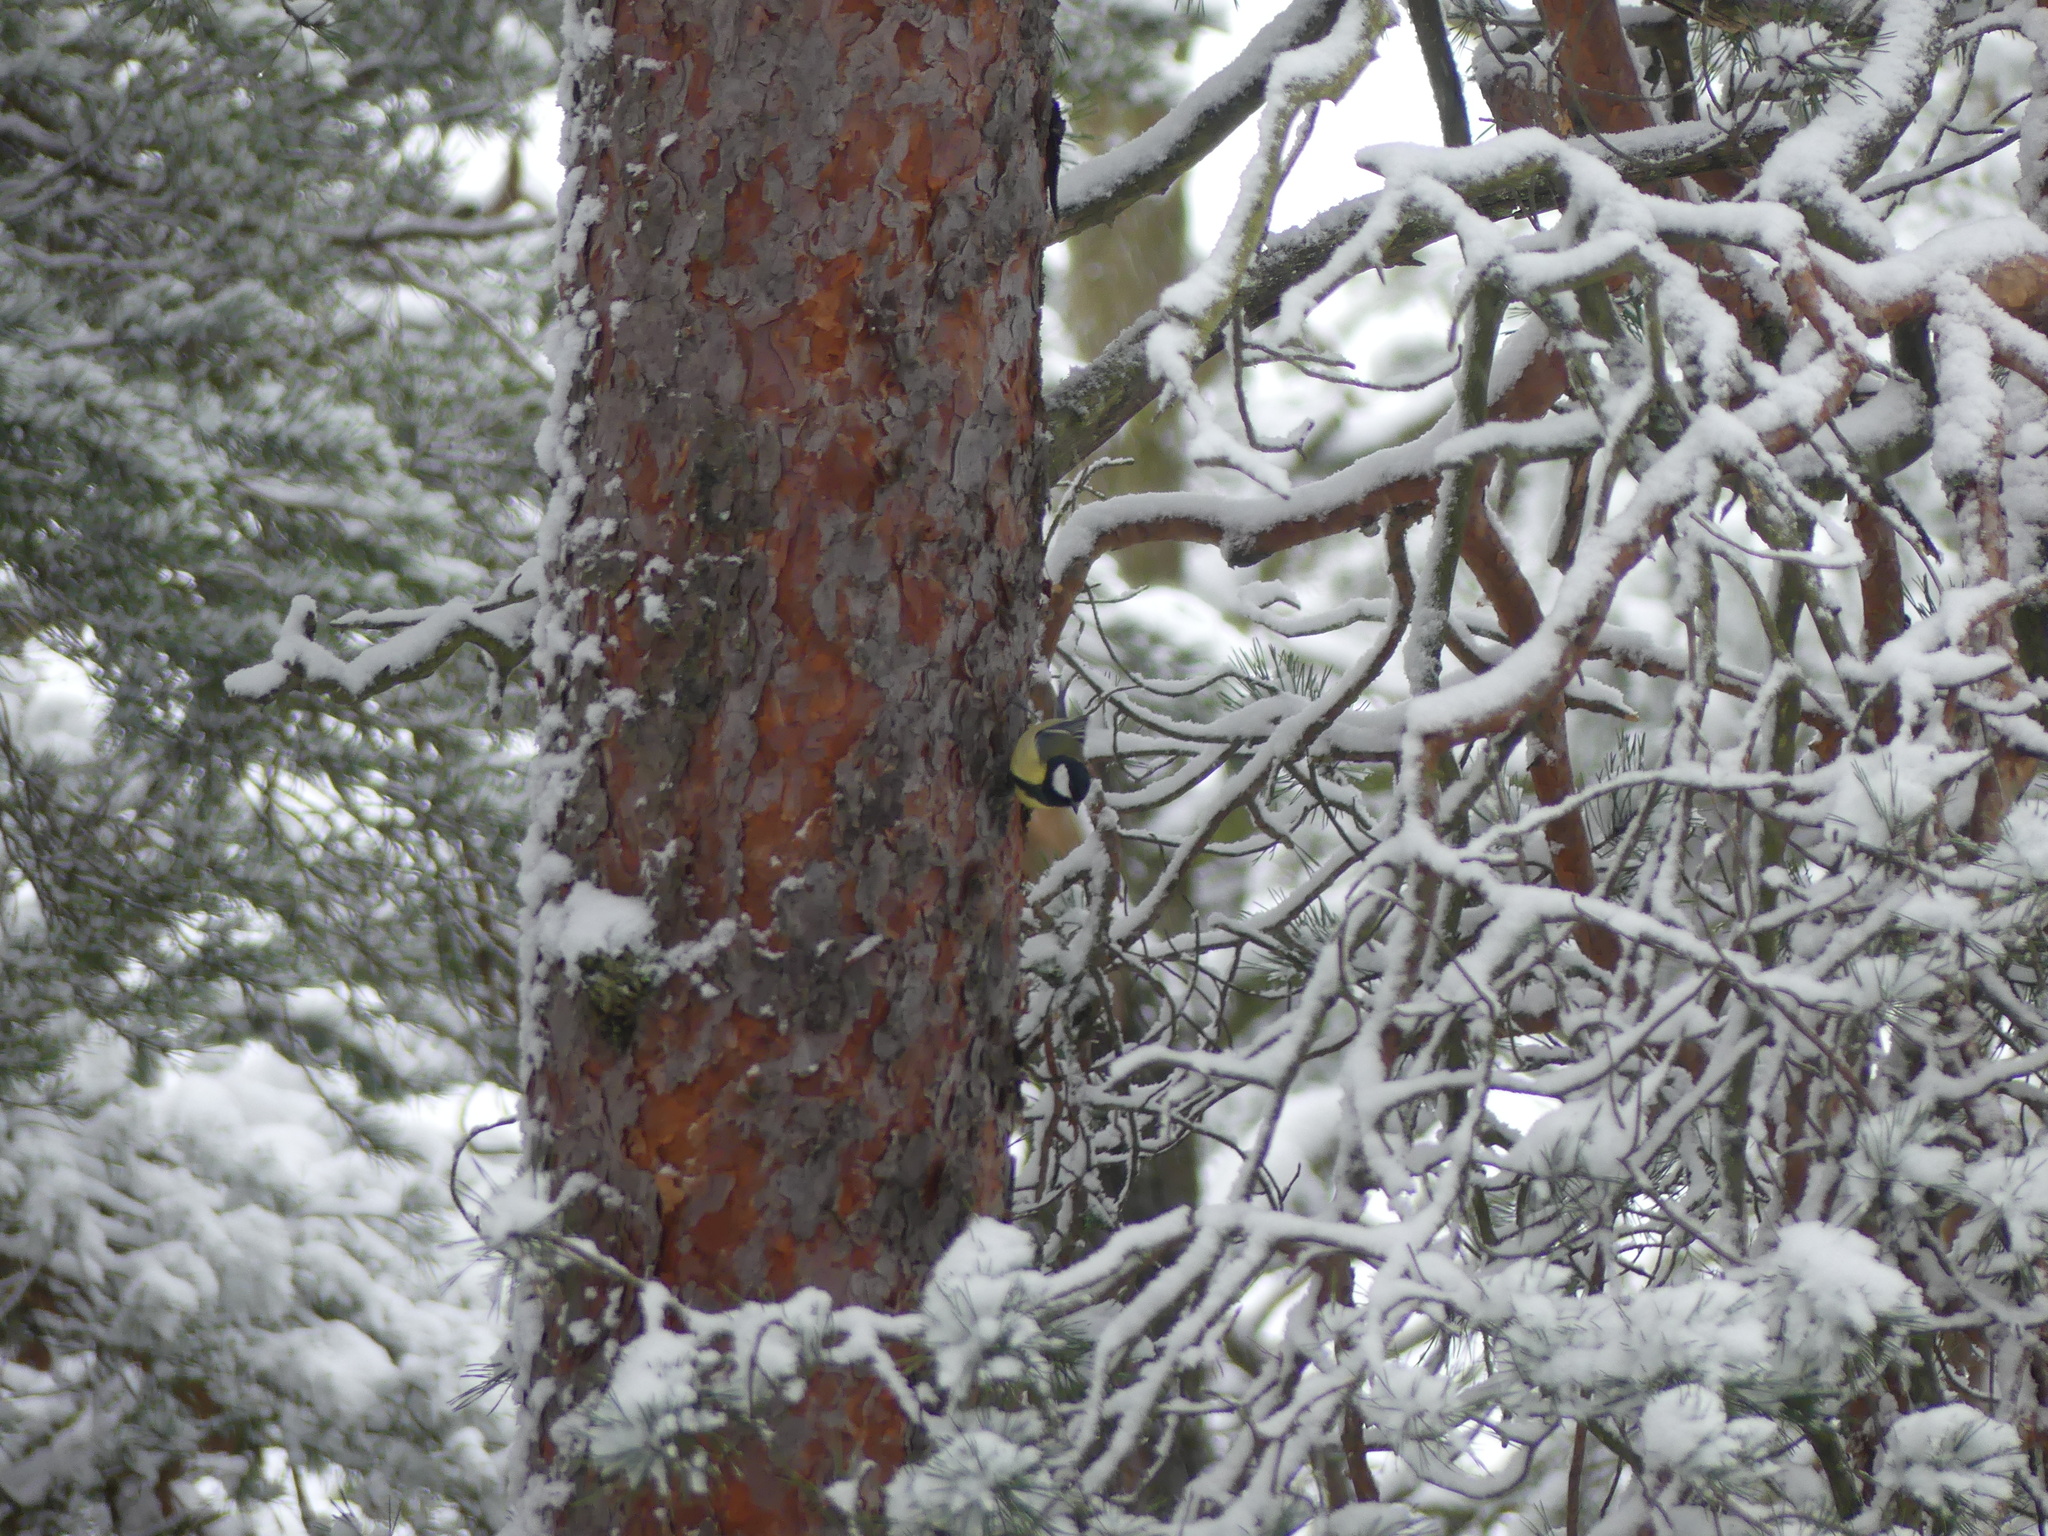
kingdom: Animalia
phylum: Chordata
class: Aves
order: Passeriformes
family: Paridae
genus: Parus
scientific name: Parus major
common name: Great tit
